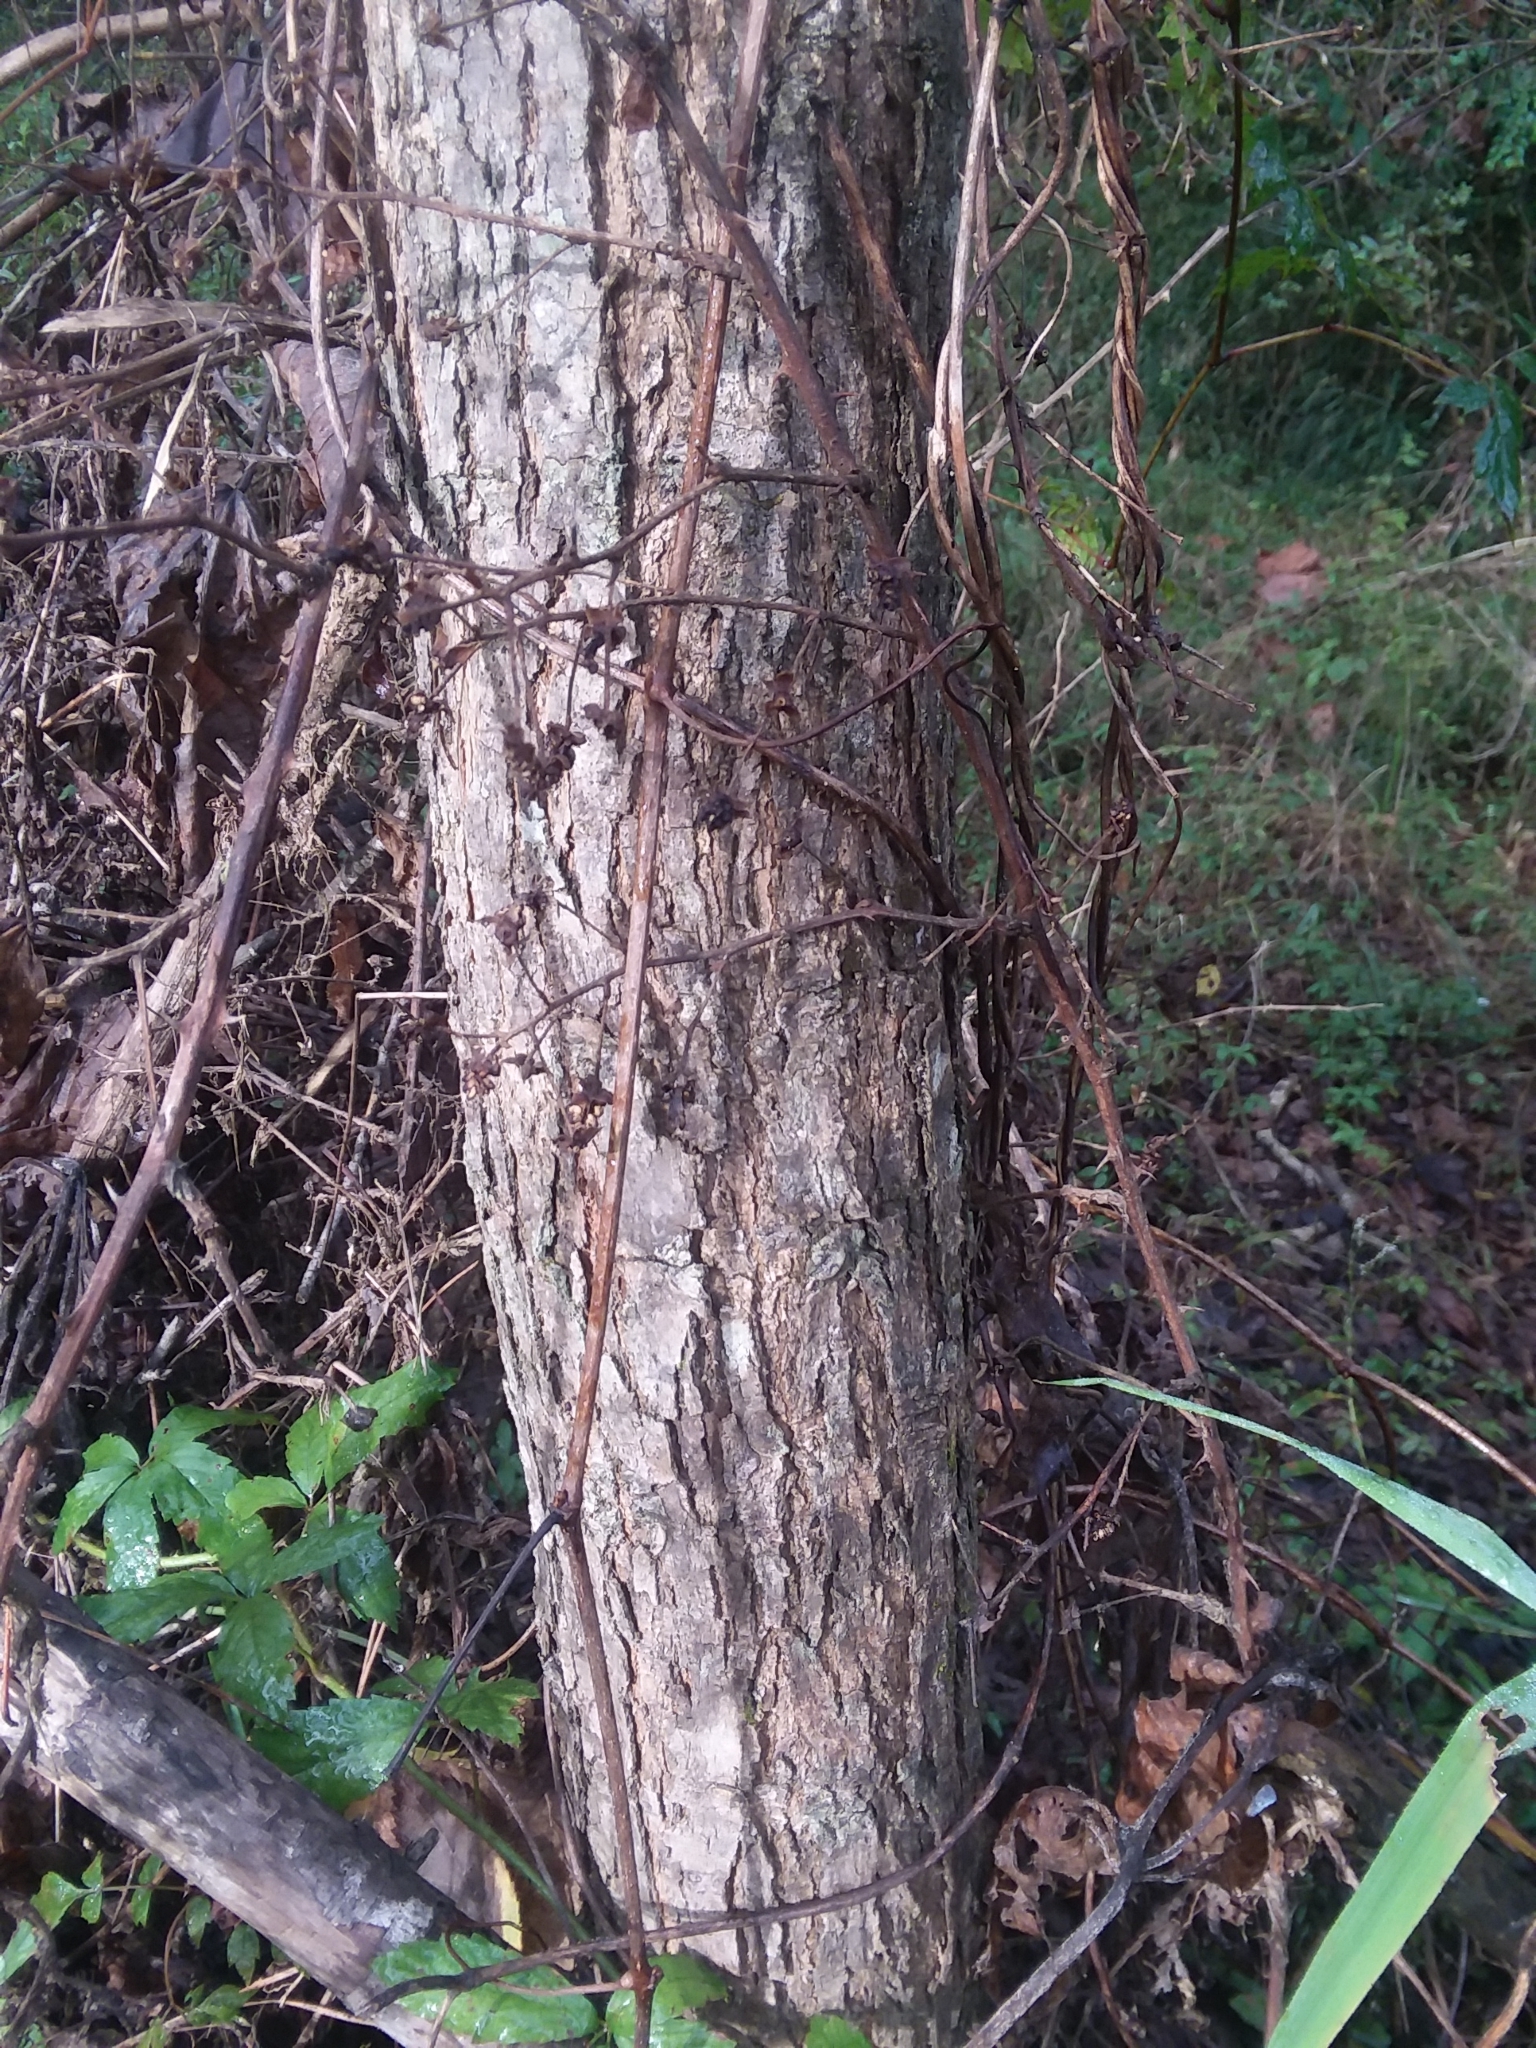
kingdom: Plantae
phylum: Tracheophyta
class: Magnoliopsida
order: Lamiales
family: Bignoniaceae
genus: Catalpa
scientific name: Catalpa bignonioides
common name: Southern catalpa
